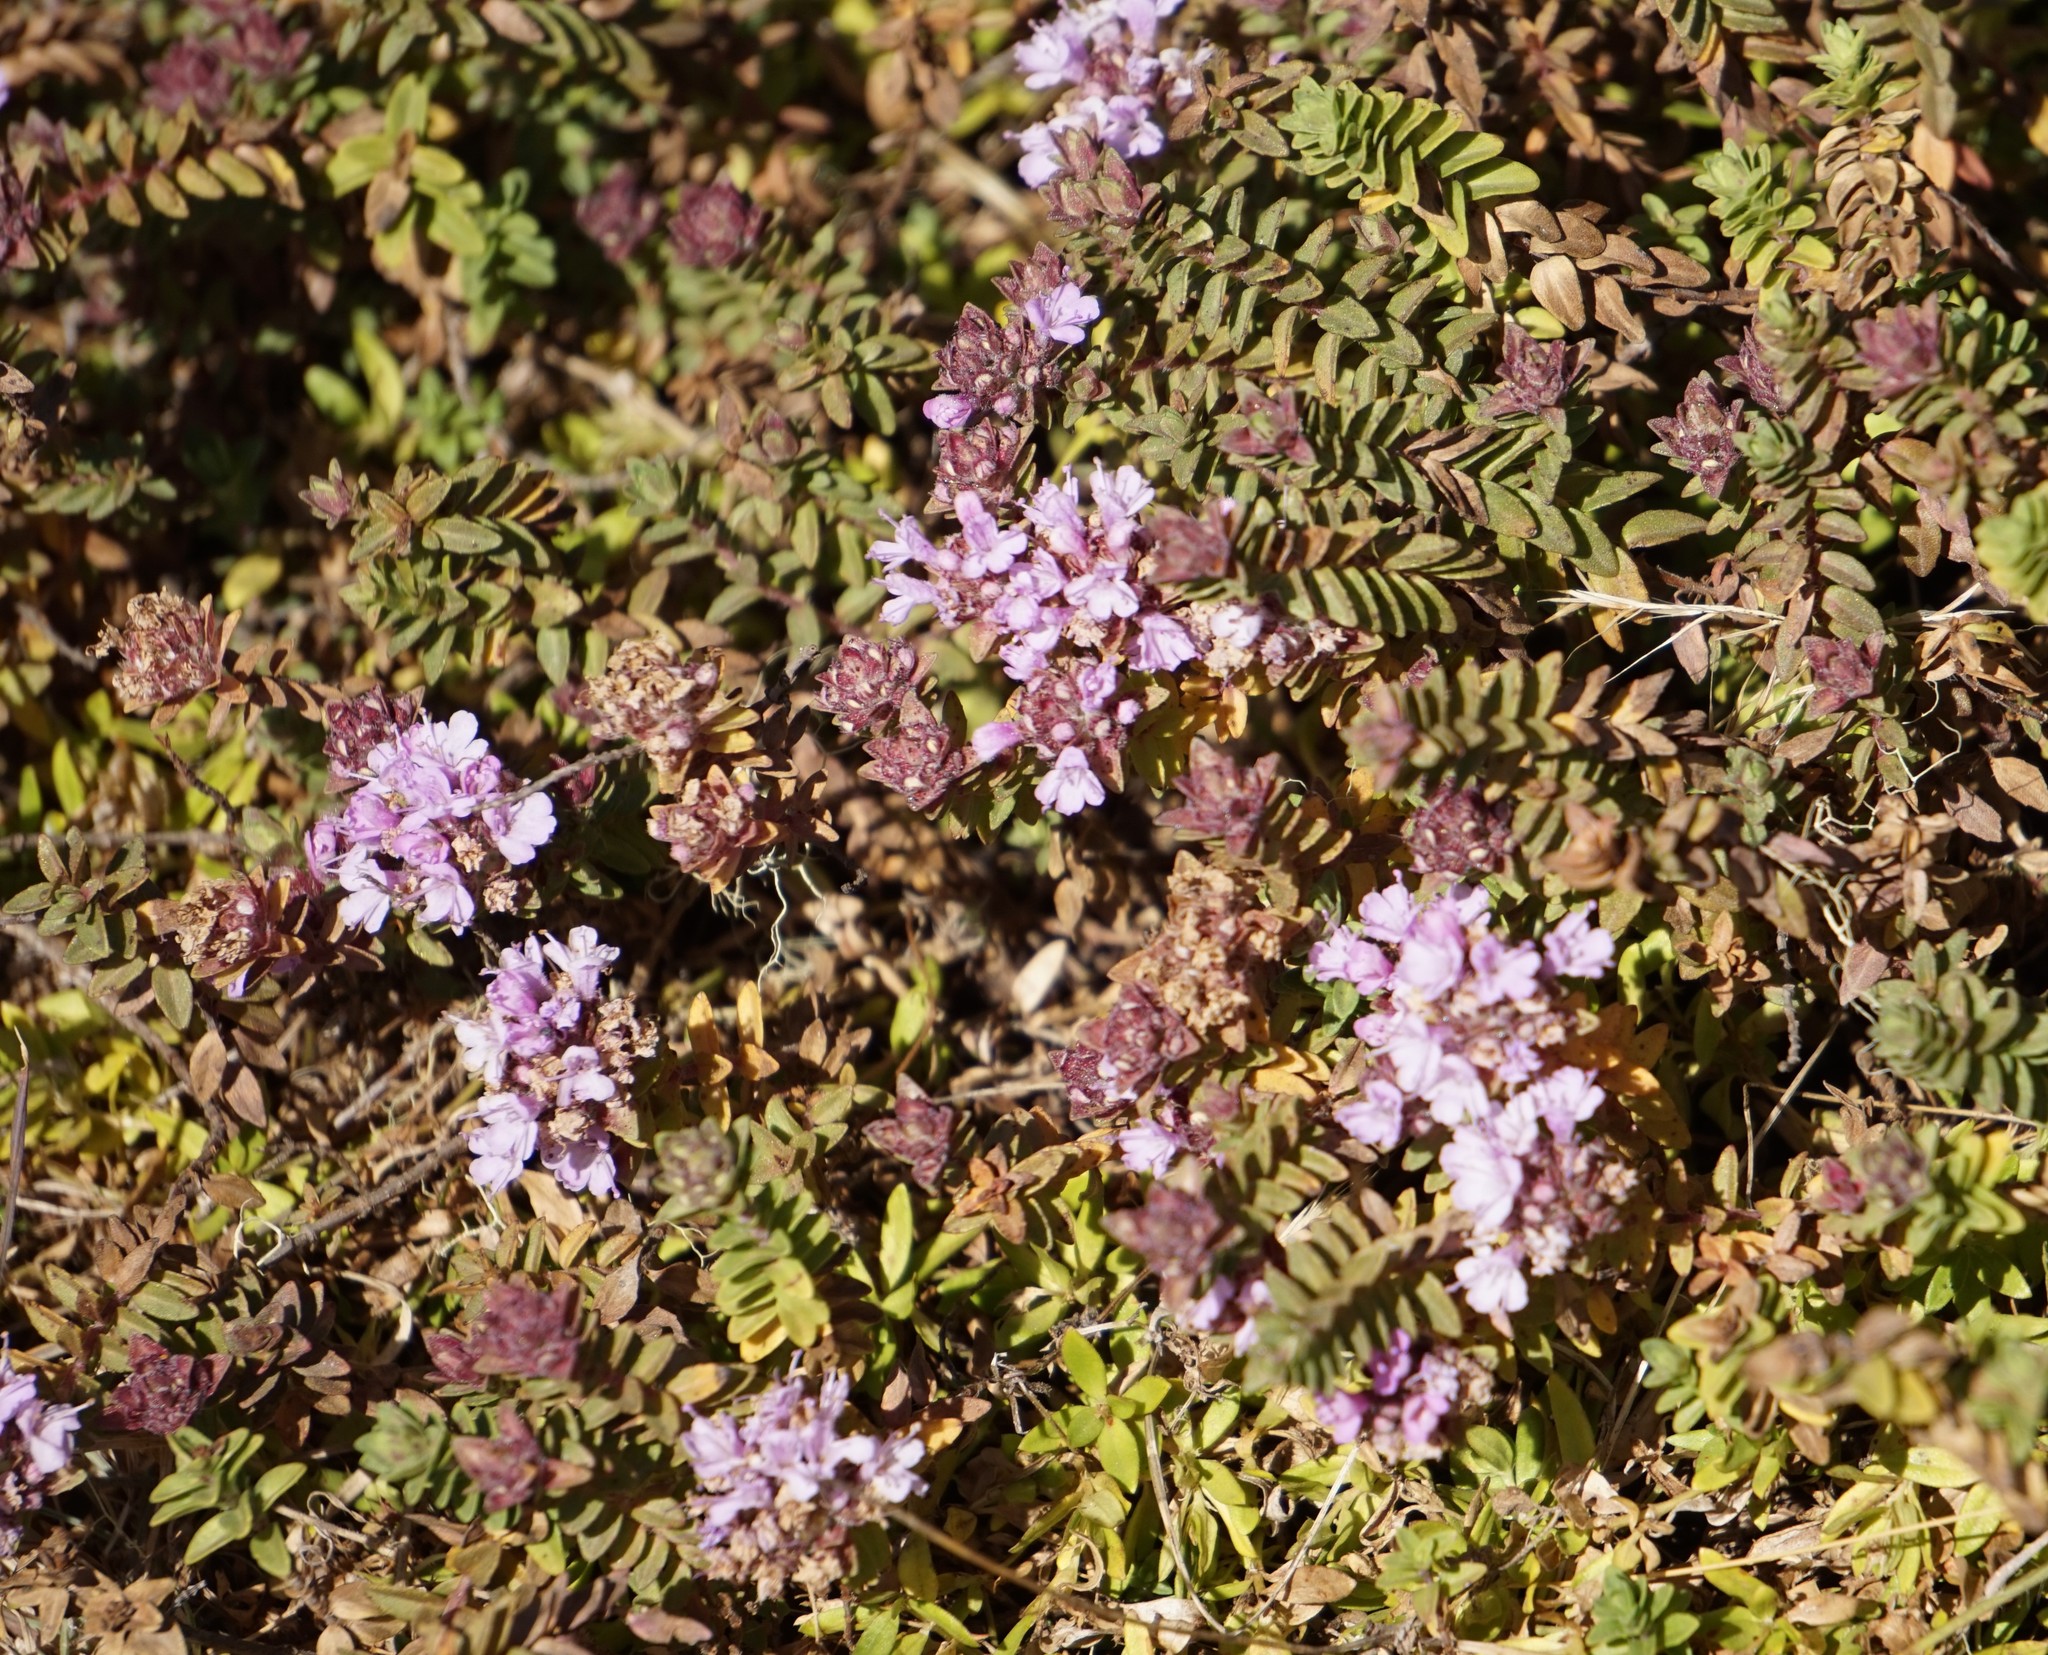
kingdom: Plantae
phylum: Tracheophyta
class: Magnoliopsida
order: Lamiales
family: Lamiaceae
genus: Thymus
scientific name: Thymus schimperi
